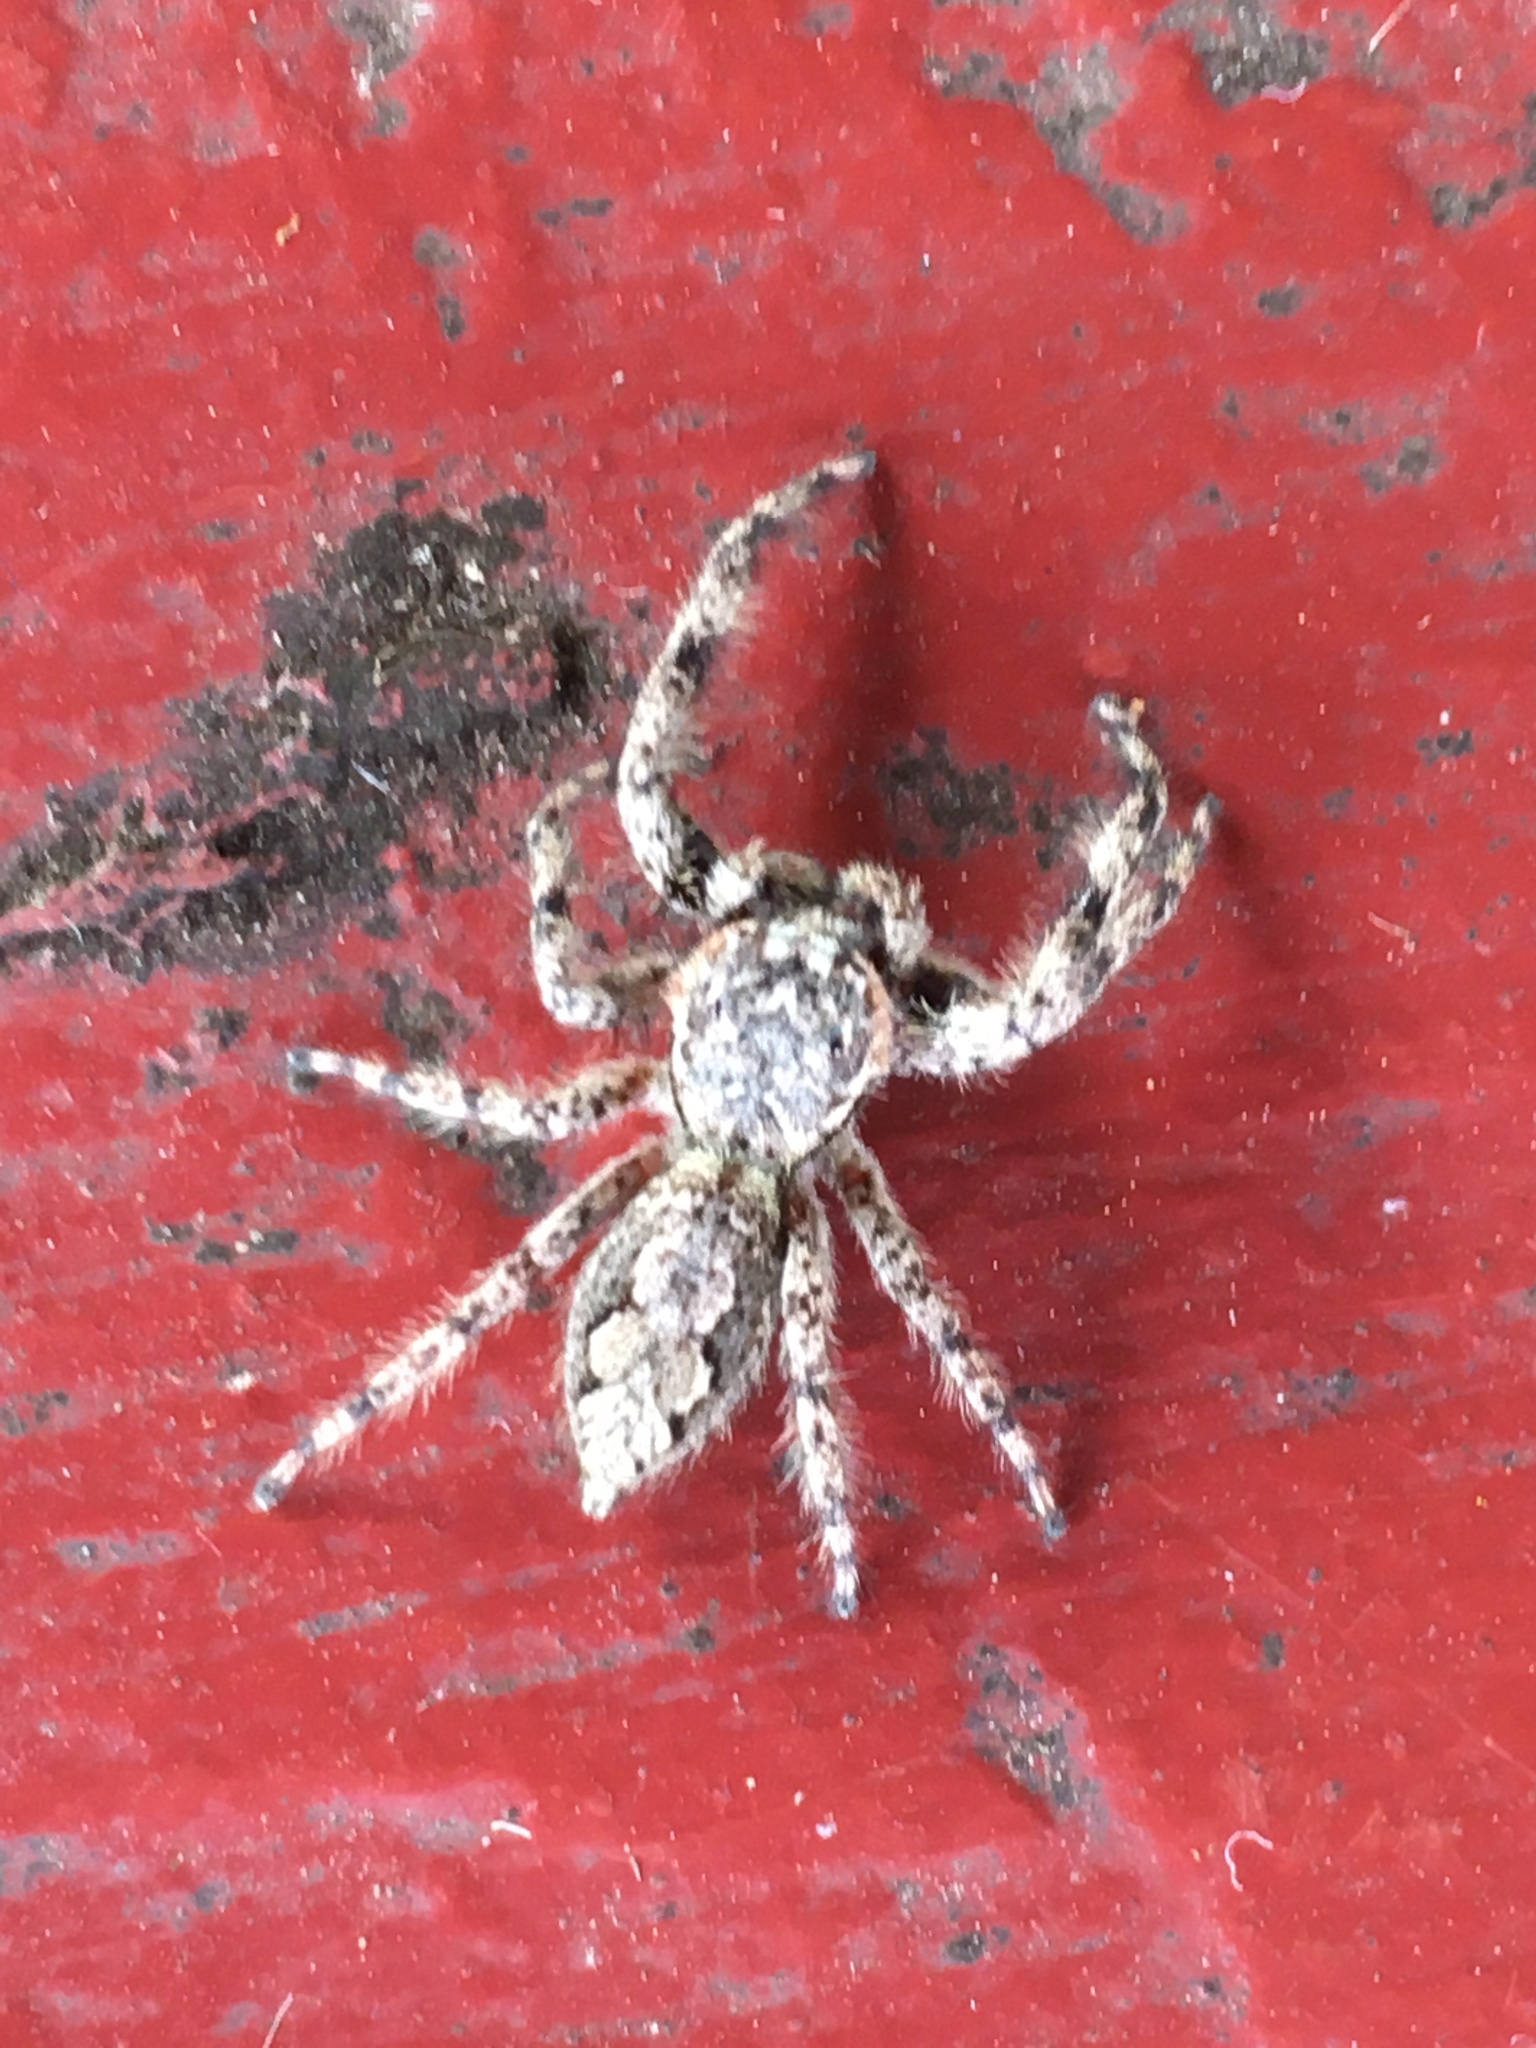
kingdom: Animalia
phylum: Arthropoda
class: Arachnida
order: Araneae
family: Salticidae
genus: Platycryptus
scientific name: Platycryptus undatus
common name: Tan jumping spider
